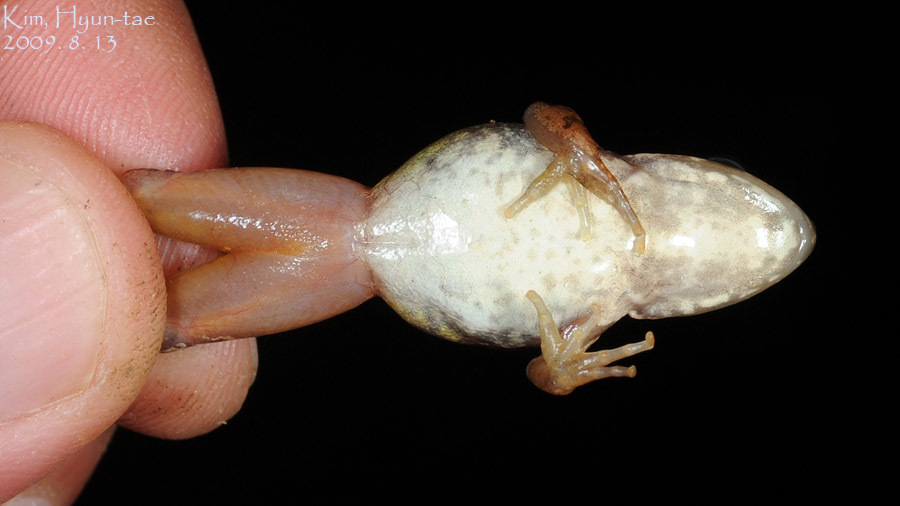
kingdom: Animalia
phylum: Chordata
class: Amphibia
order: Anura
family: Ranidae
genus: Rana
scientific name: Rana uenoi
